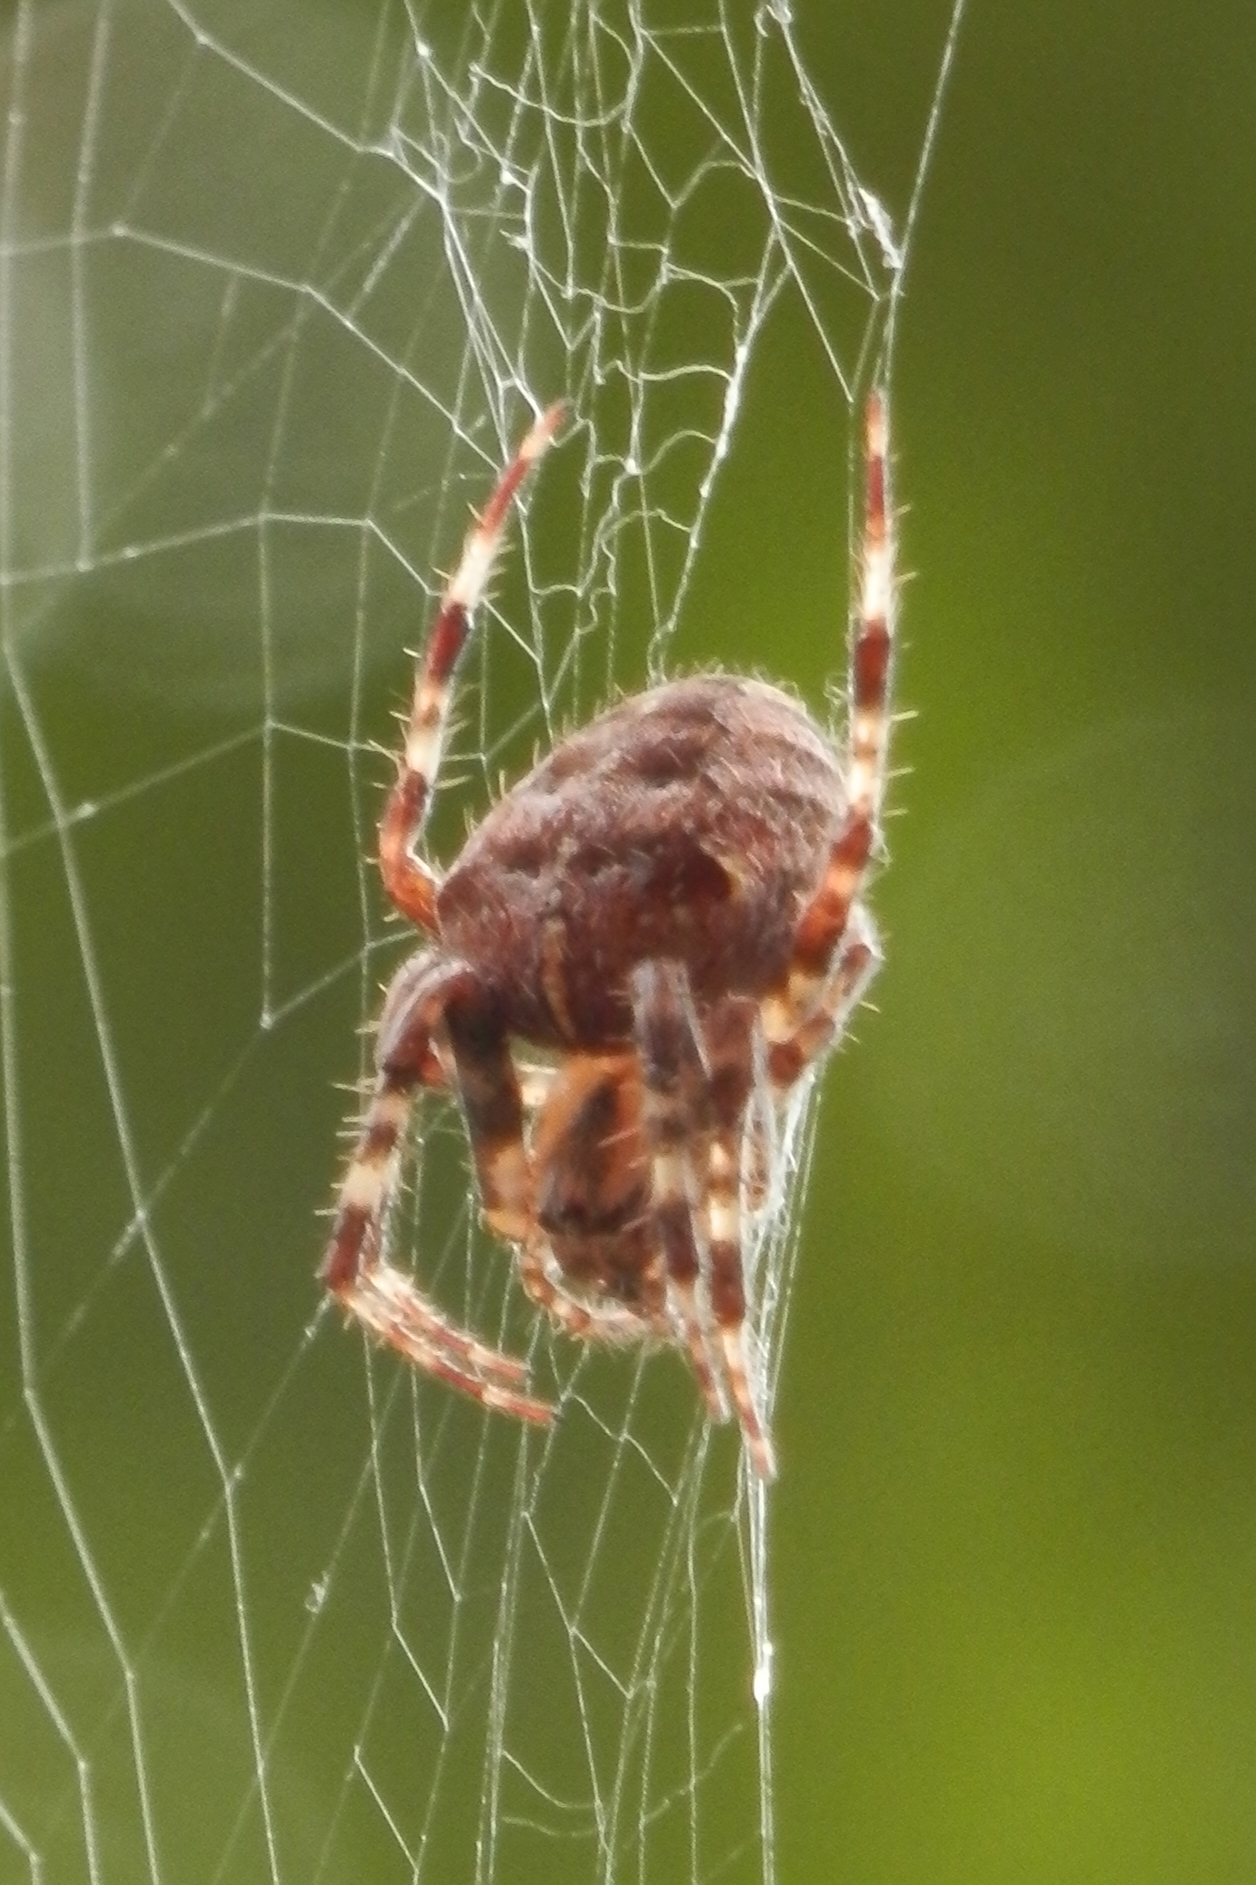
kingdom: Animalia
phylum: Arthropoda
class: Arachnida
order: Araneae
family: Araneidae
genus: Araneus
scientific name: Araneus diadematus
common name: Cross orbweaver
